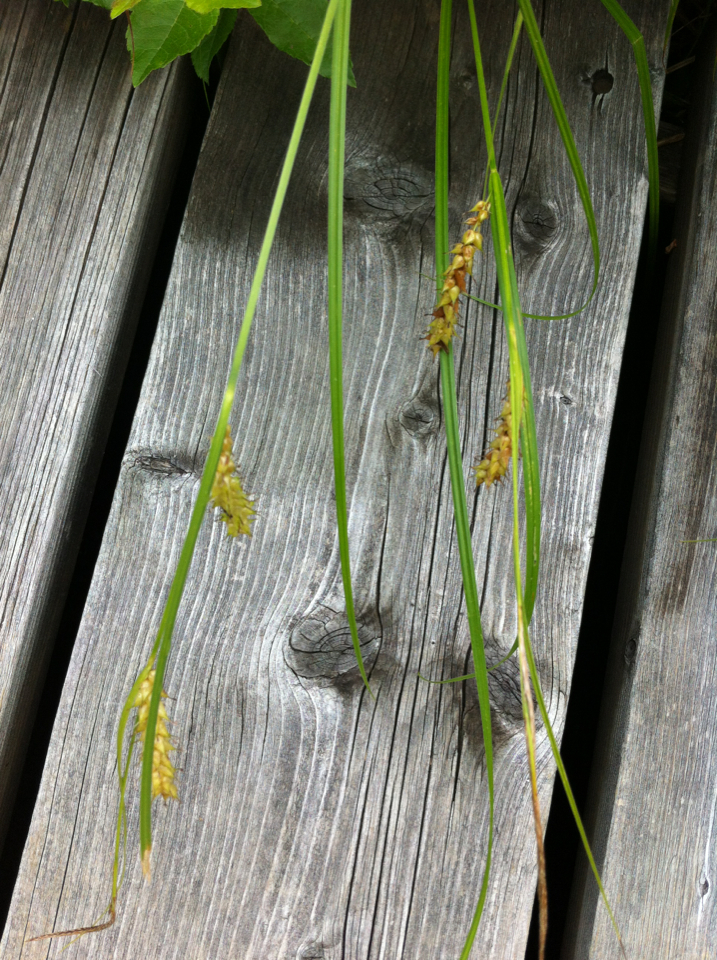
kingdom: Plantae
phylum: Tracheophyta
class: Liliopsida
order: Poales
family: Cyperaceae
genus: Carex
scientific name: Carex vesicaria
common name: Bladder-sedge
